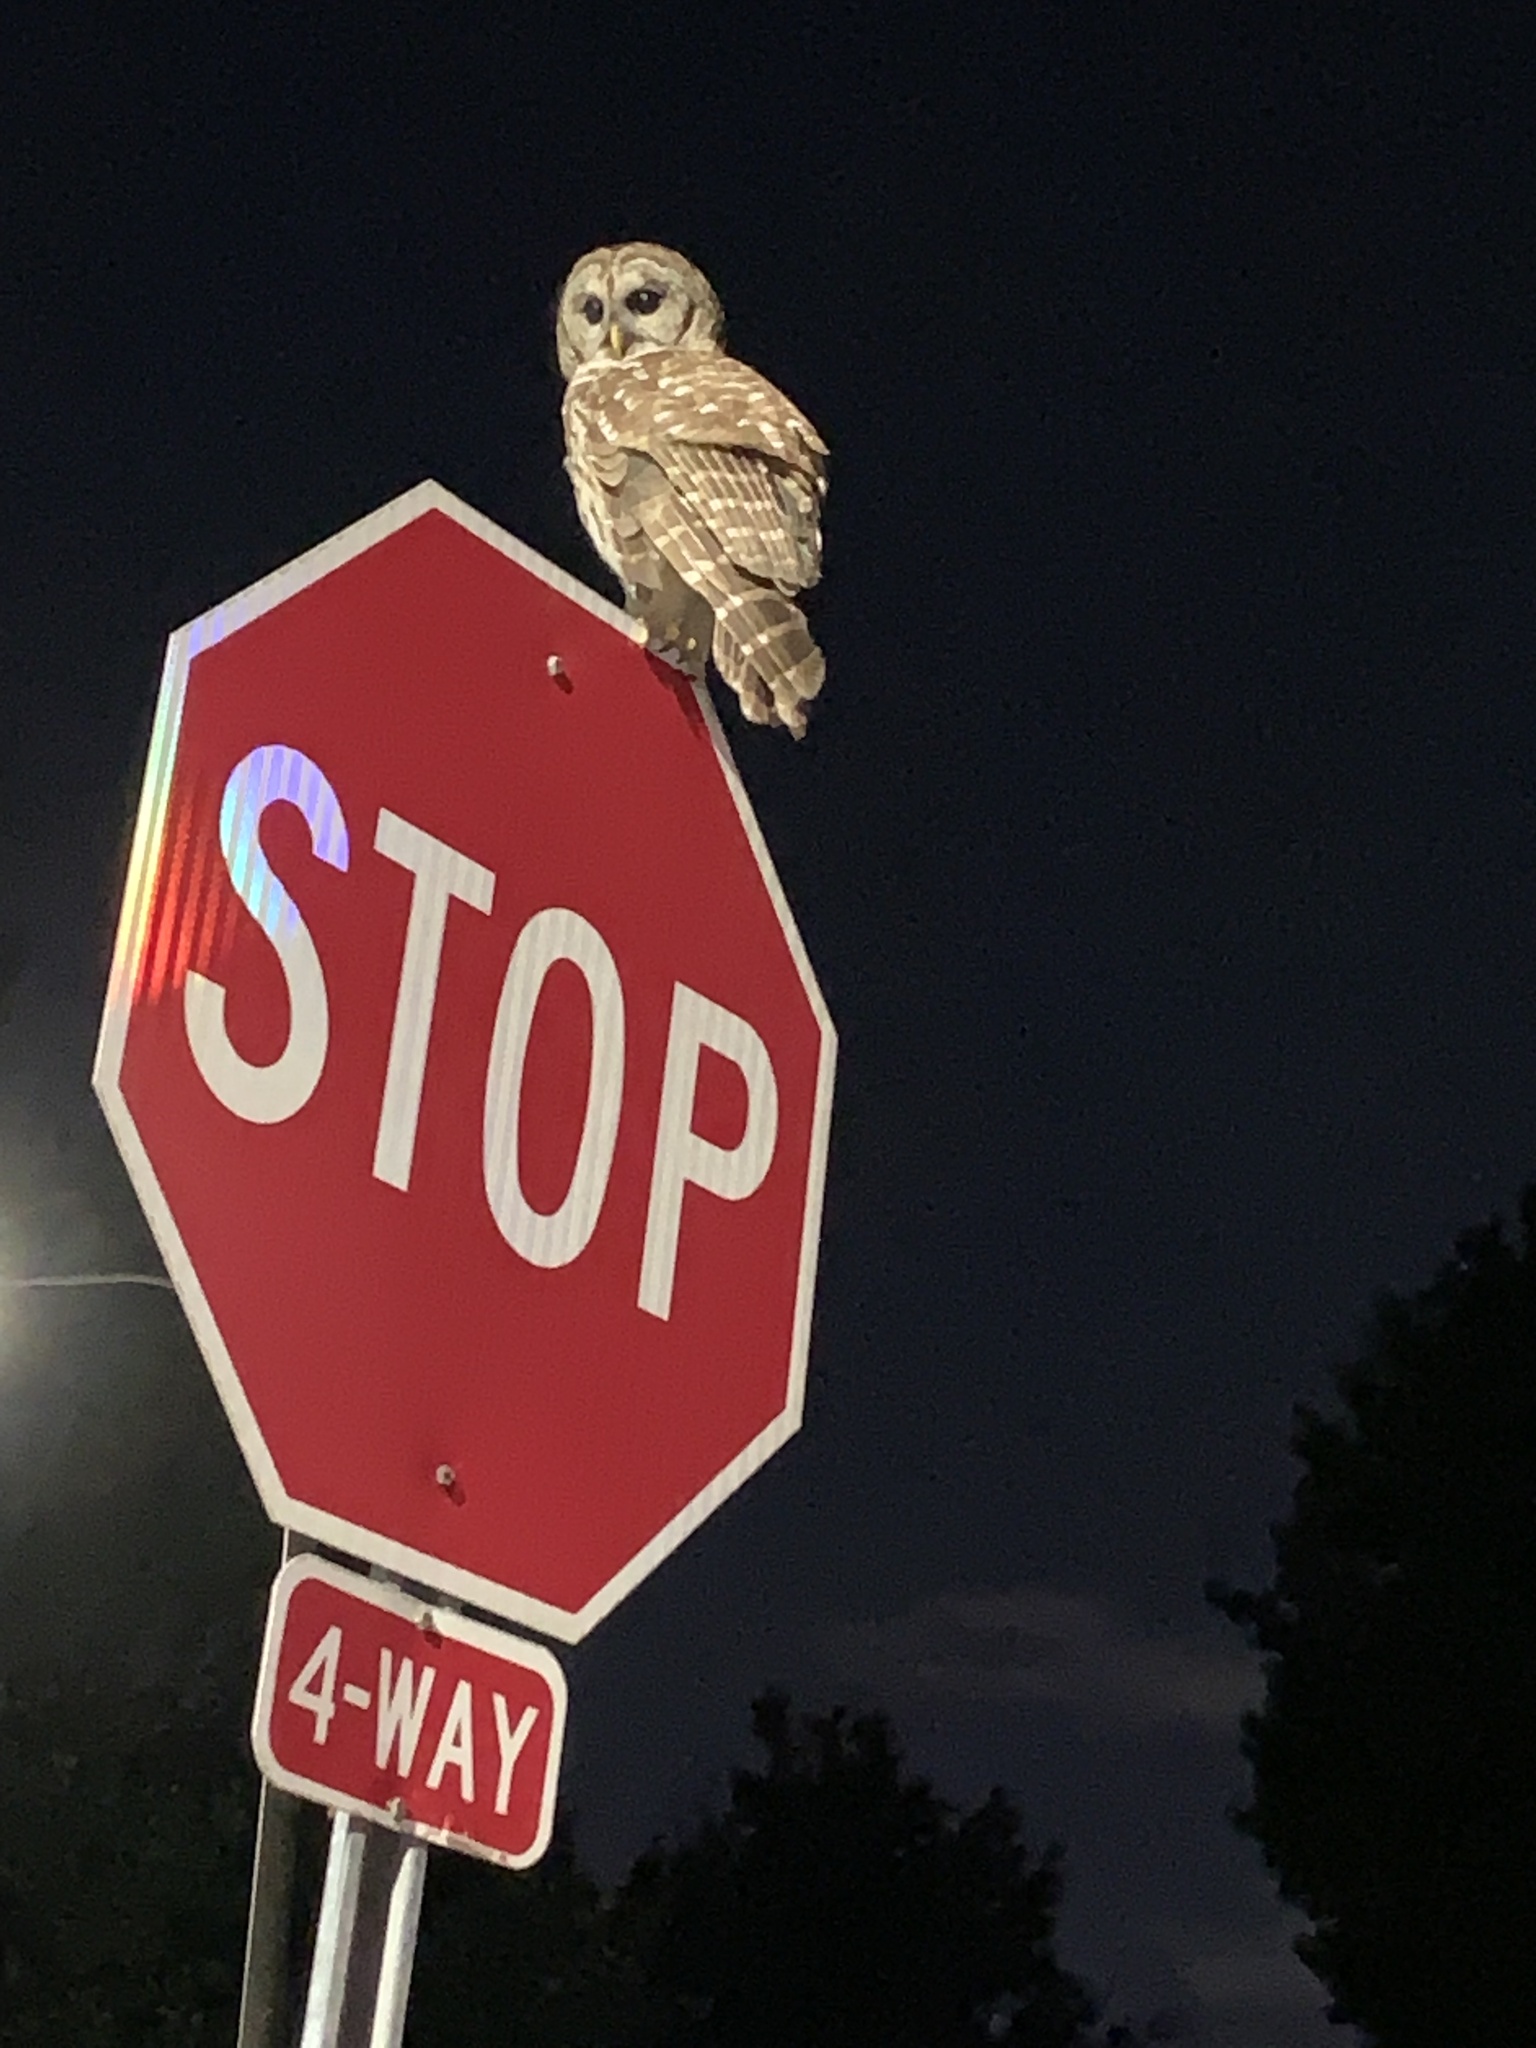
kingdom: Animalia
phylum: Chordata
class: Aves
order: Strigiformes
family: Strigidae
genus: Strix
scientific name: Strix varia
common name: Barred owl
